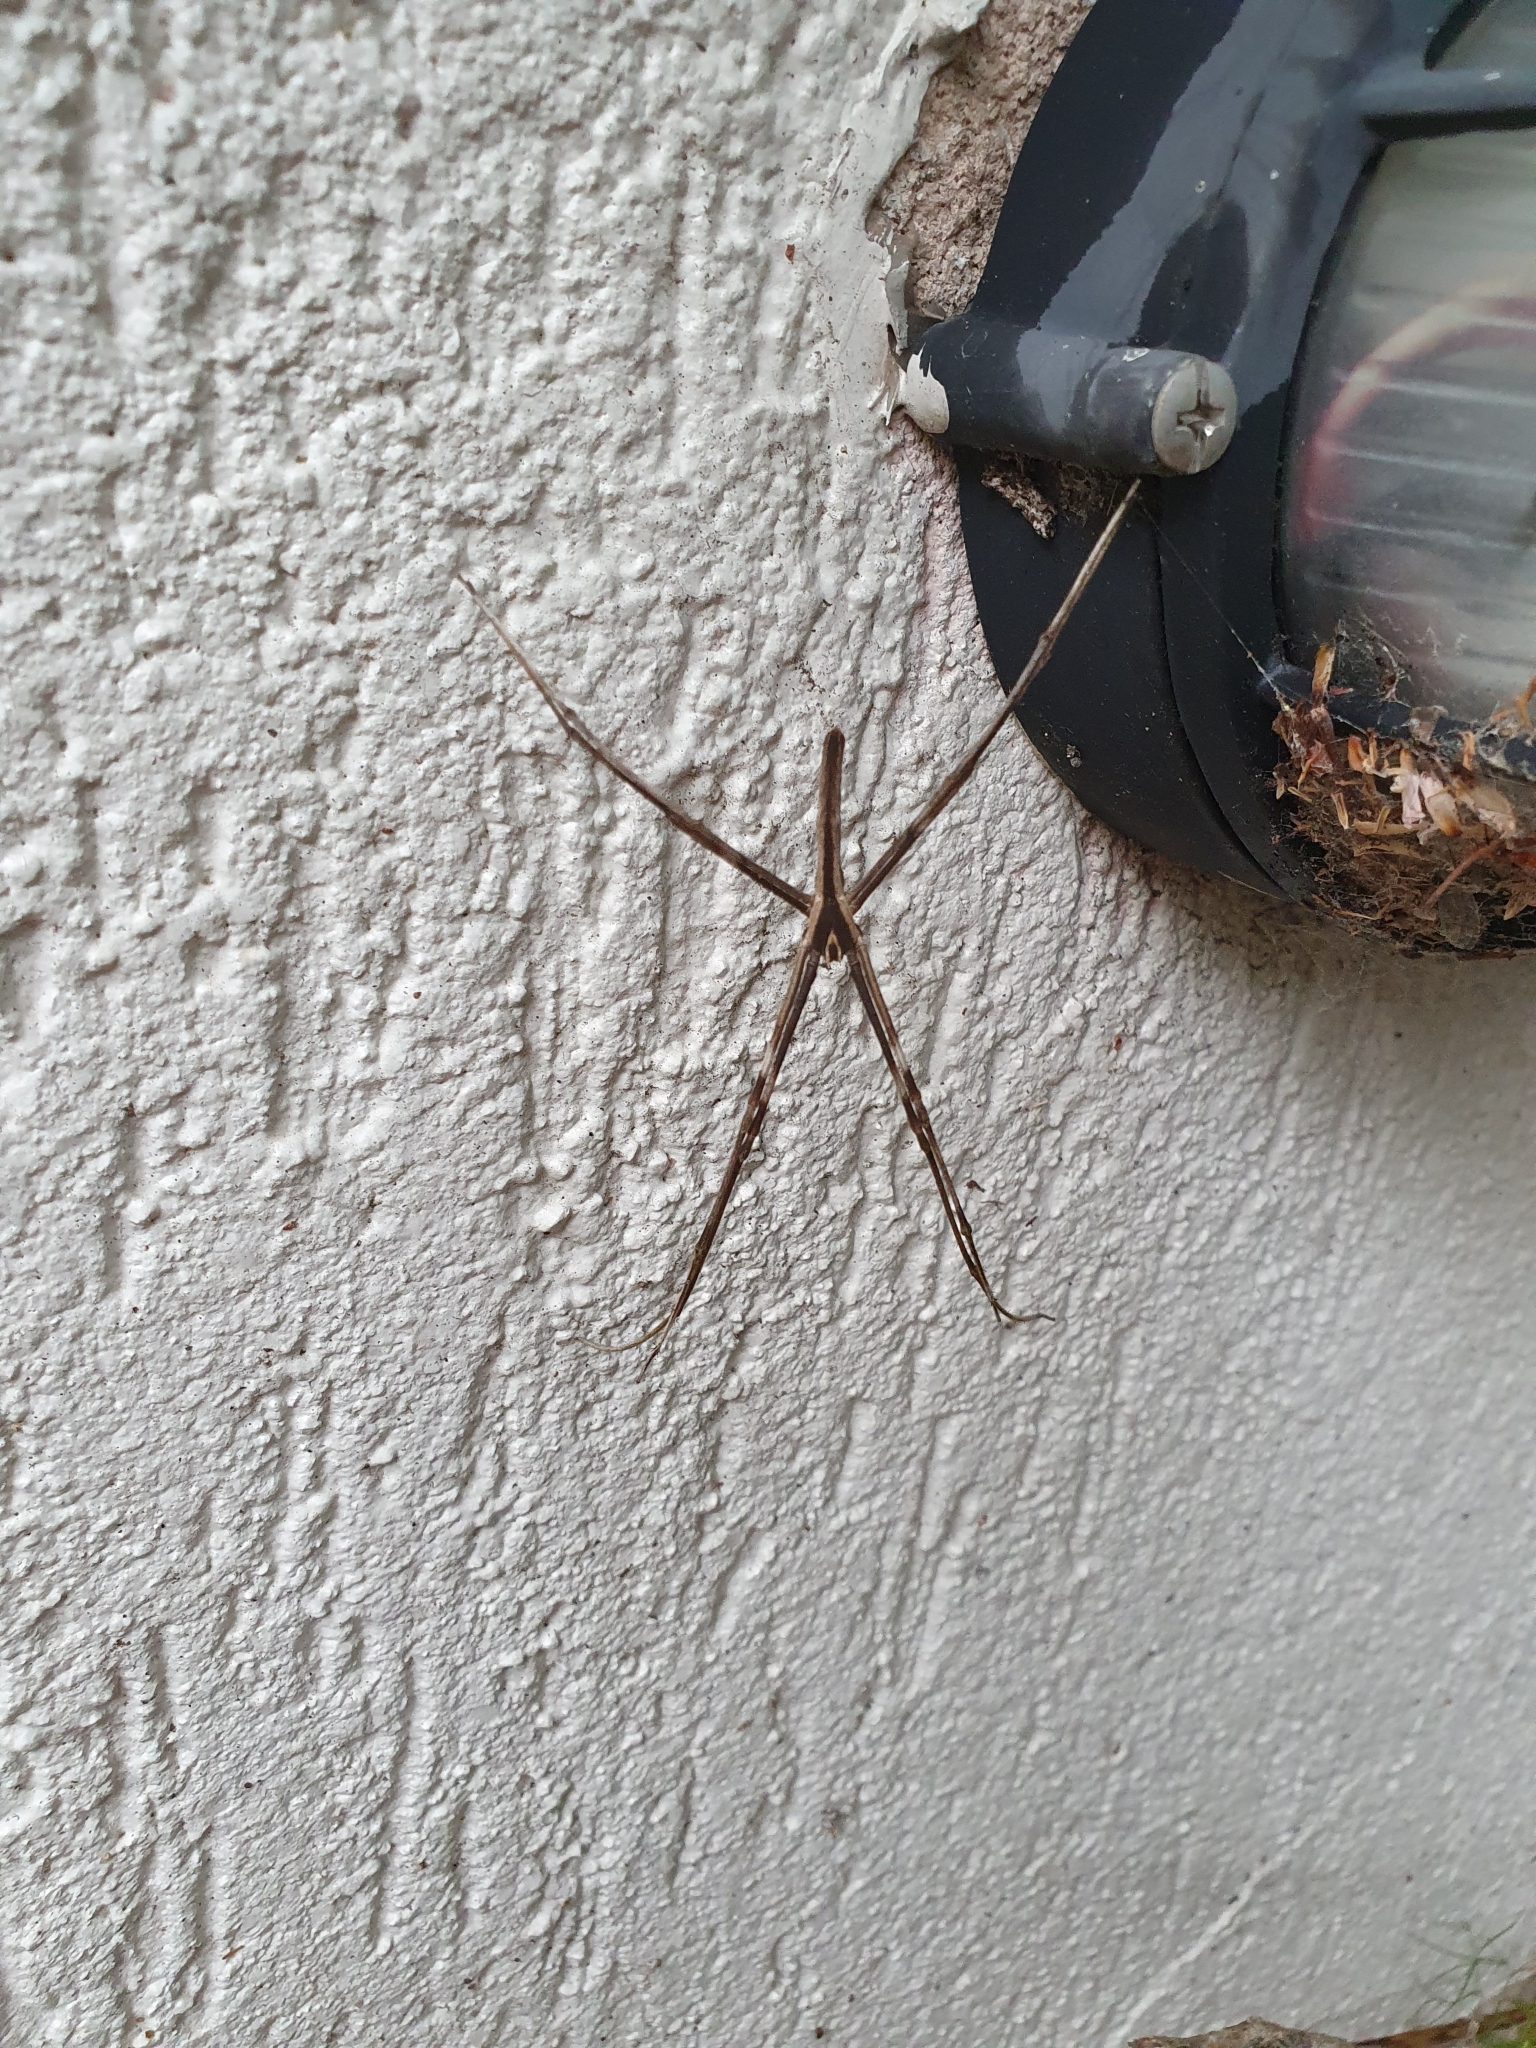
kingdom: Animalia
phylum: Arthropoda
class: Arachnida
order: Araneae
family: Deinopidae
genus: Deinopis
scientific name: Deinopis subrufa
